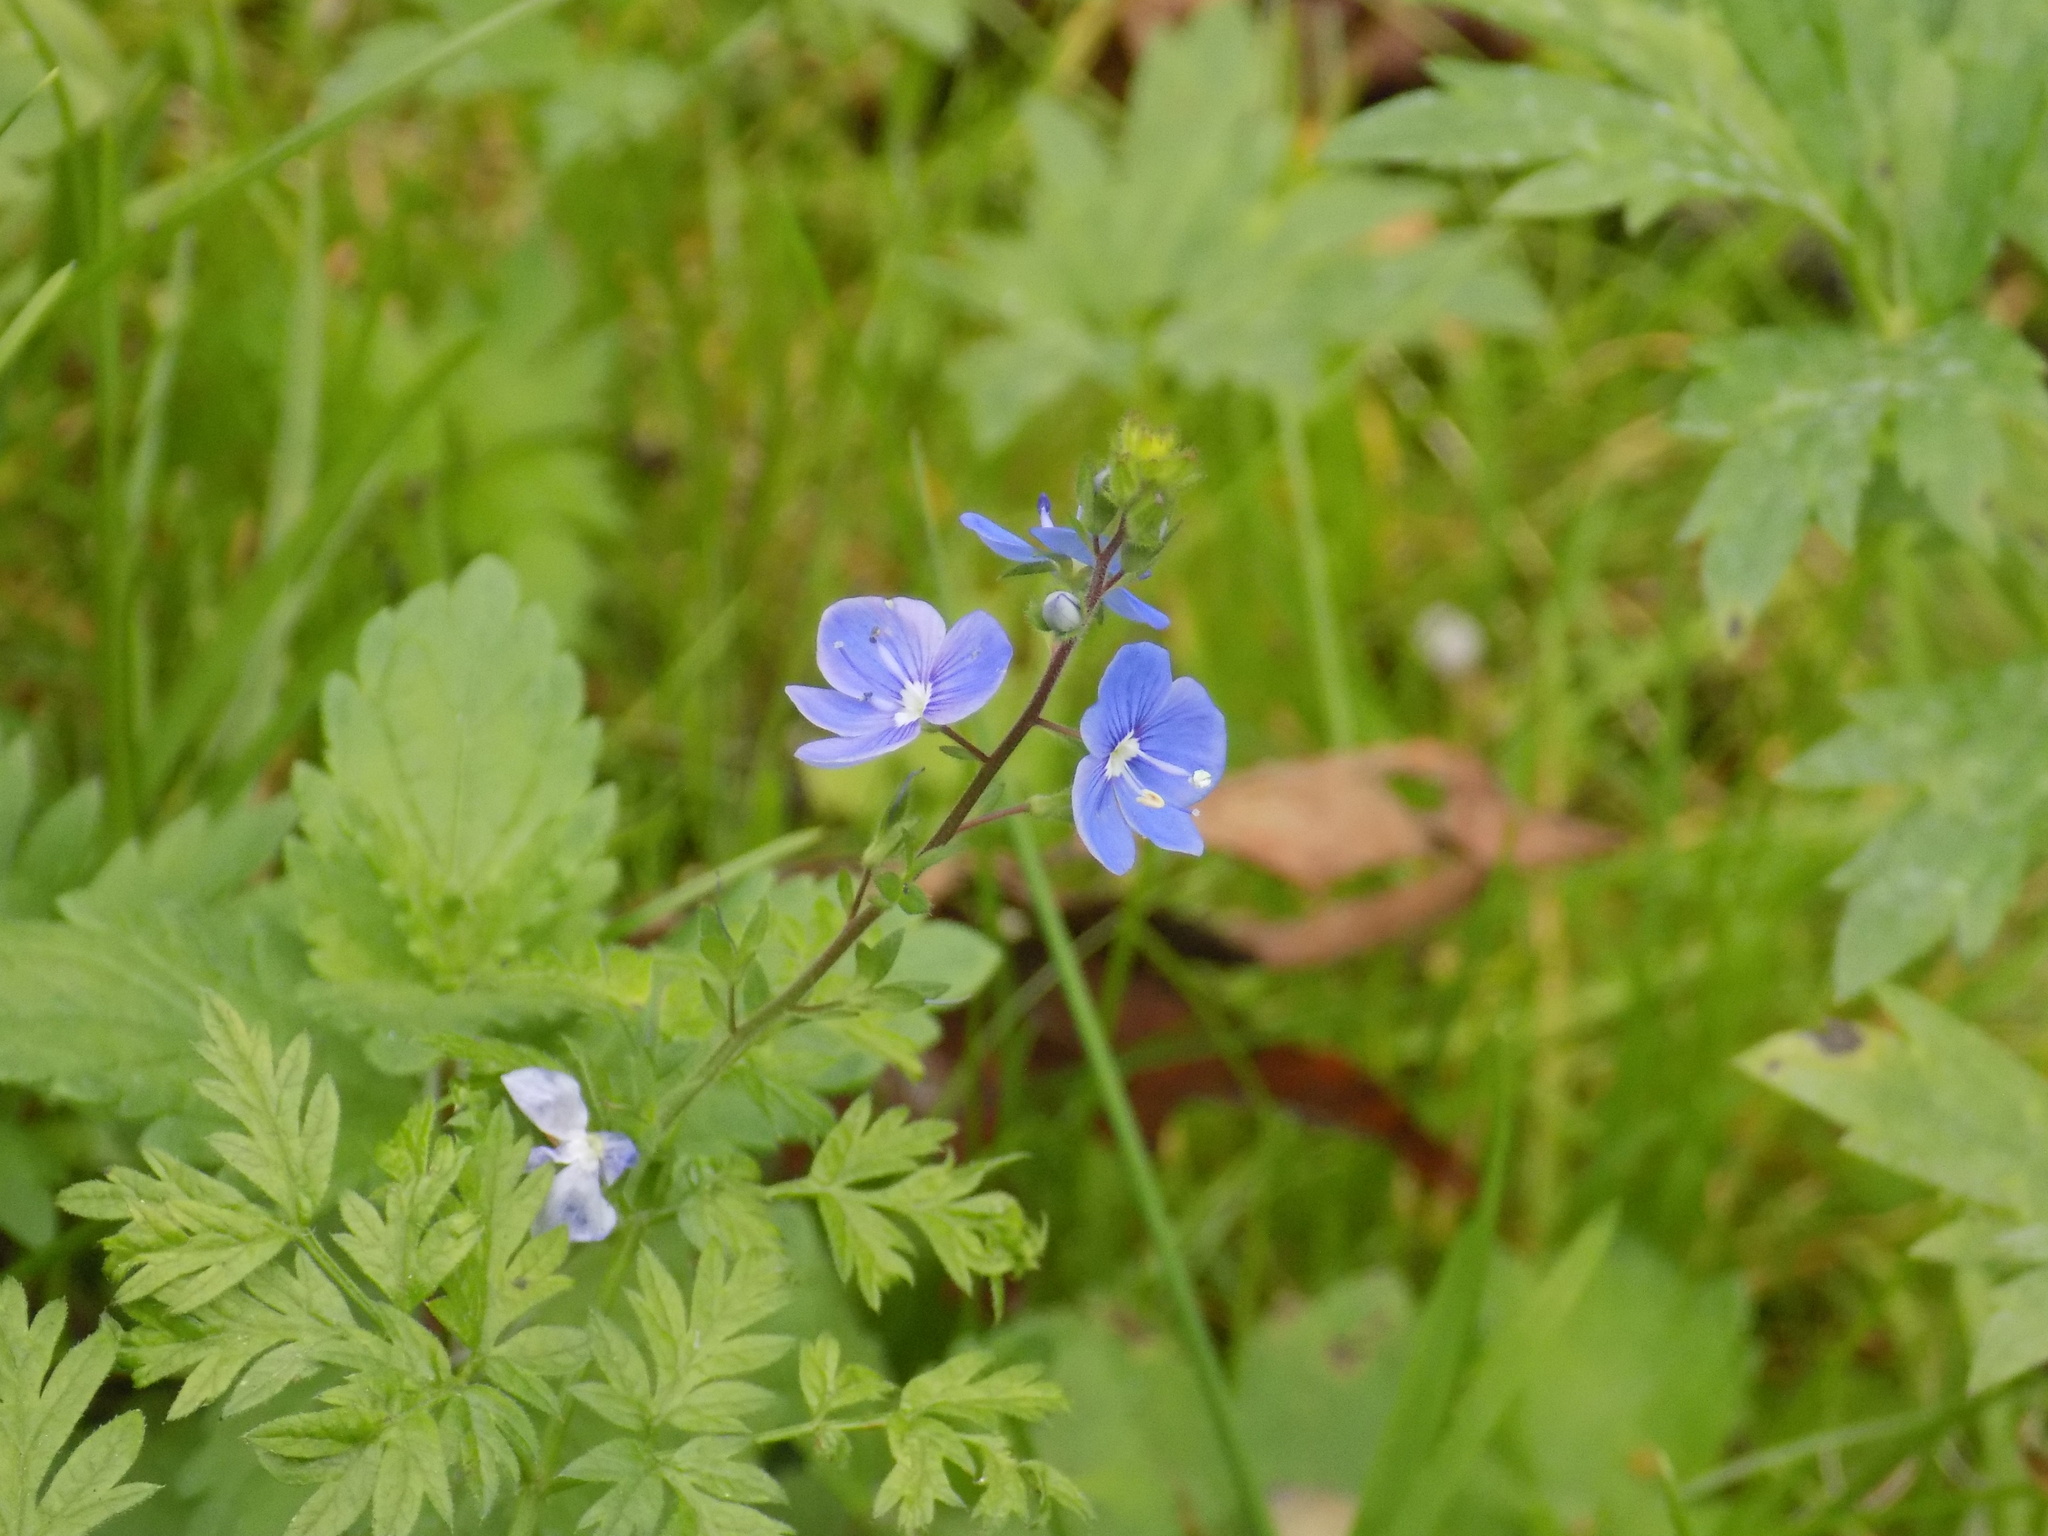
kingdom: Plantae
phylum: Tracheophyta
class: Magnoliopsida
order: Lamiales
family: Plantaginaceae
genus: Veronica
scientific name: Veronica chamaedrys
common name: Germander speedwell
